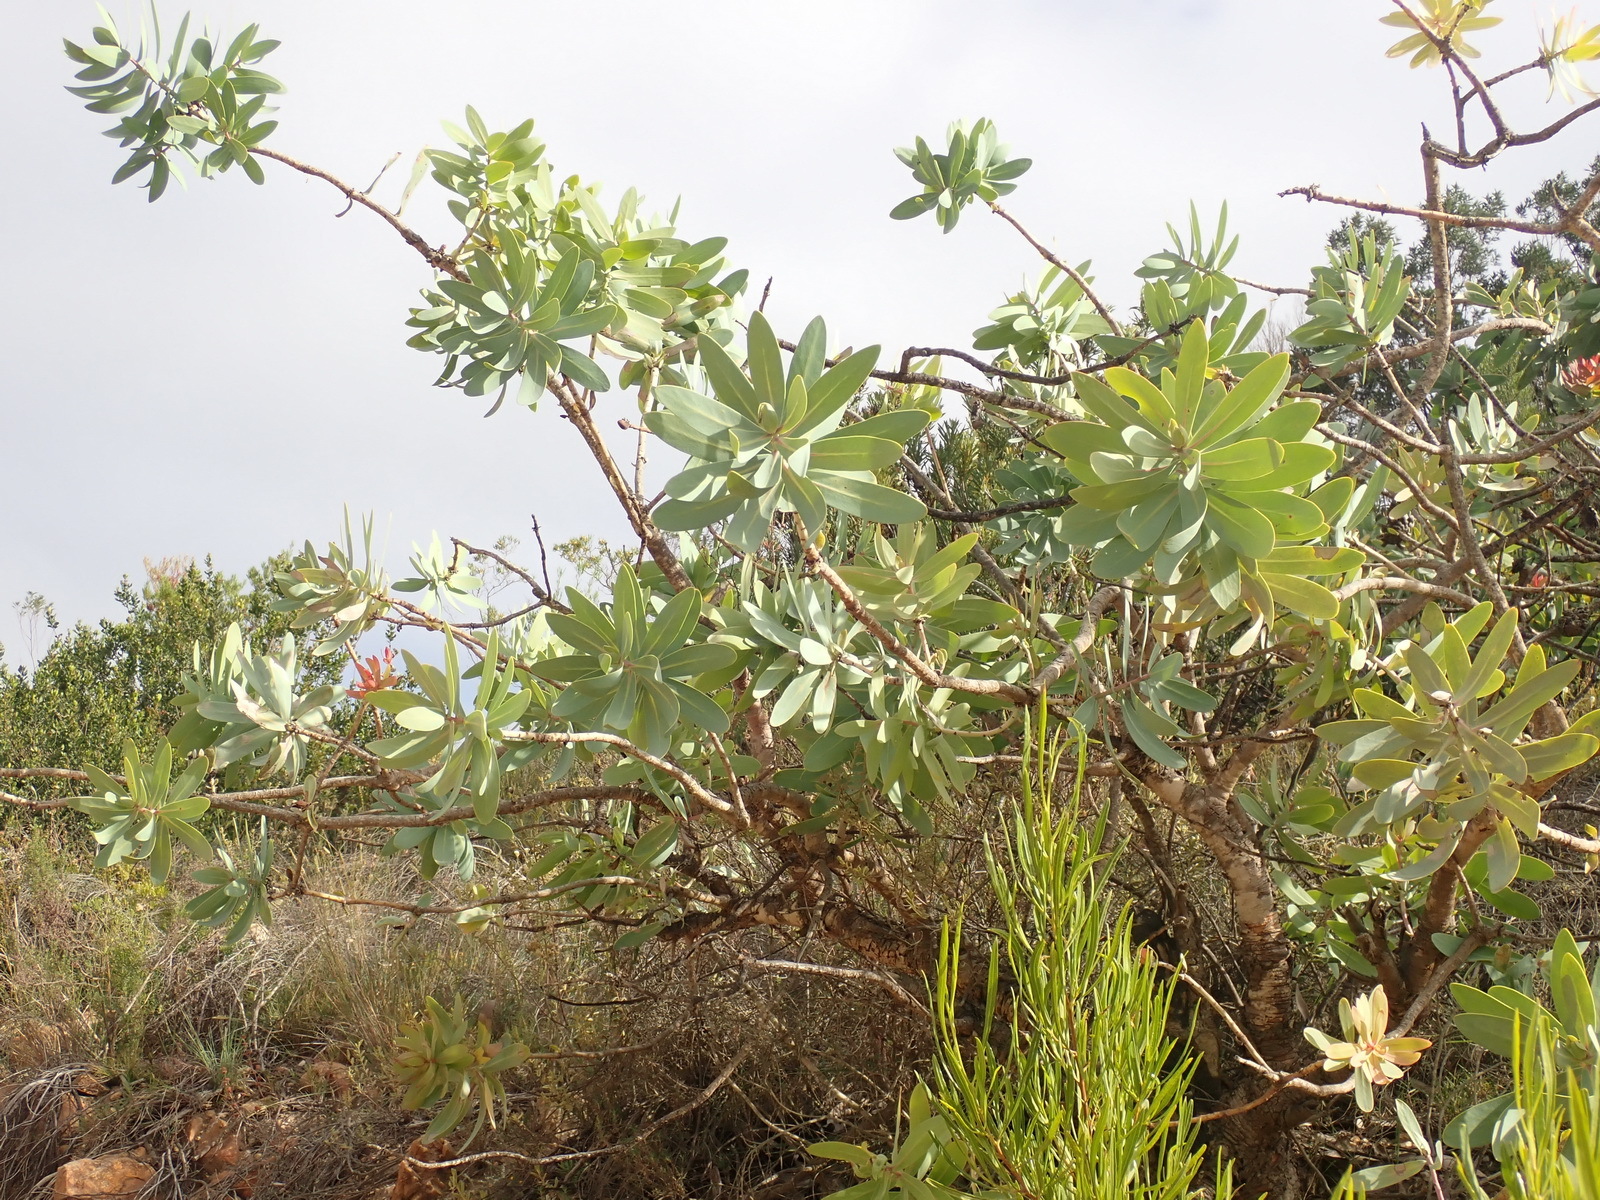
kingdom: Plantae
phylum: Tracheophyta
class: Magnoliopsida
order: Proteales
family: Proteaceae
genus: Protea
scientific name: Protea nitida
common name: Tree protea
